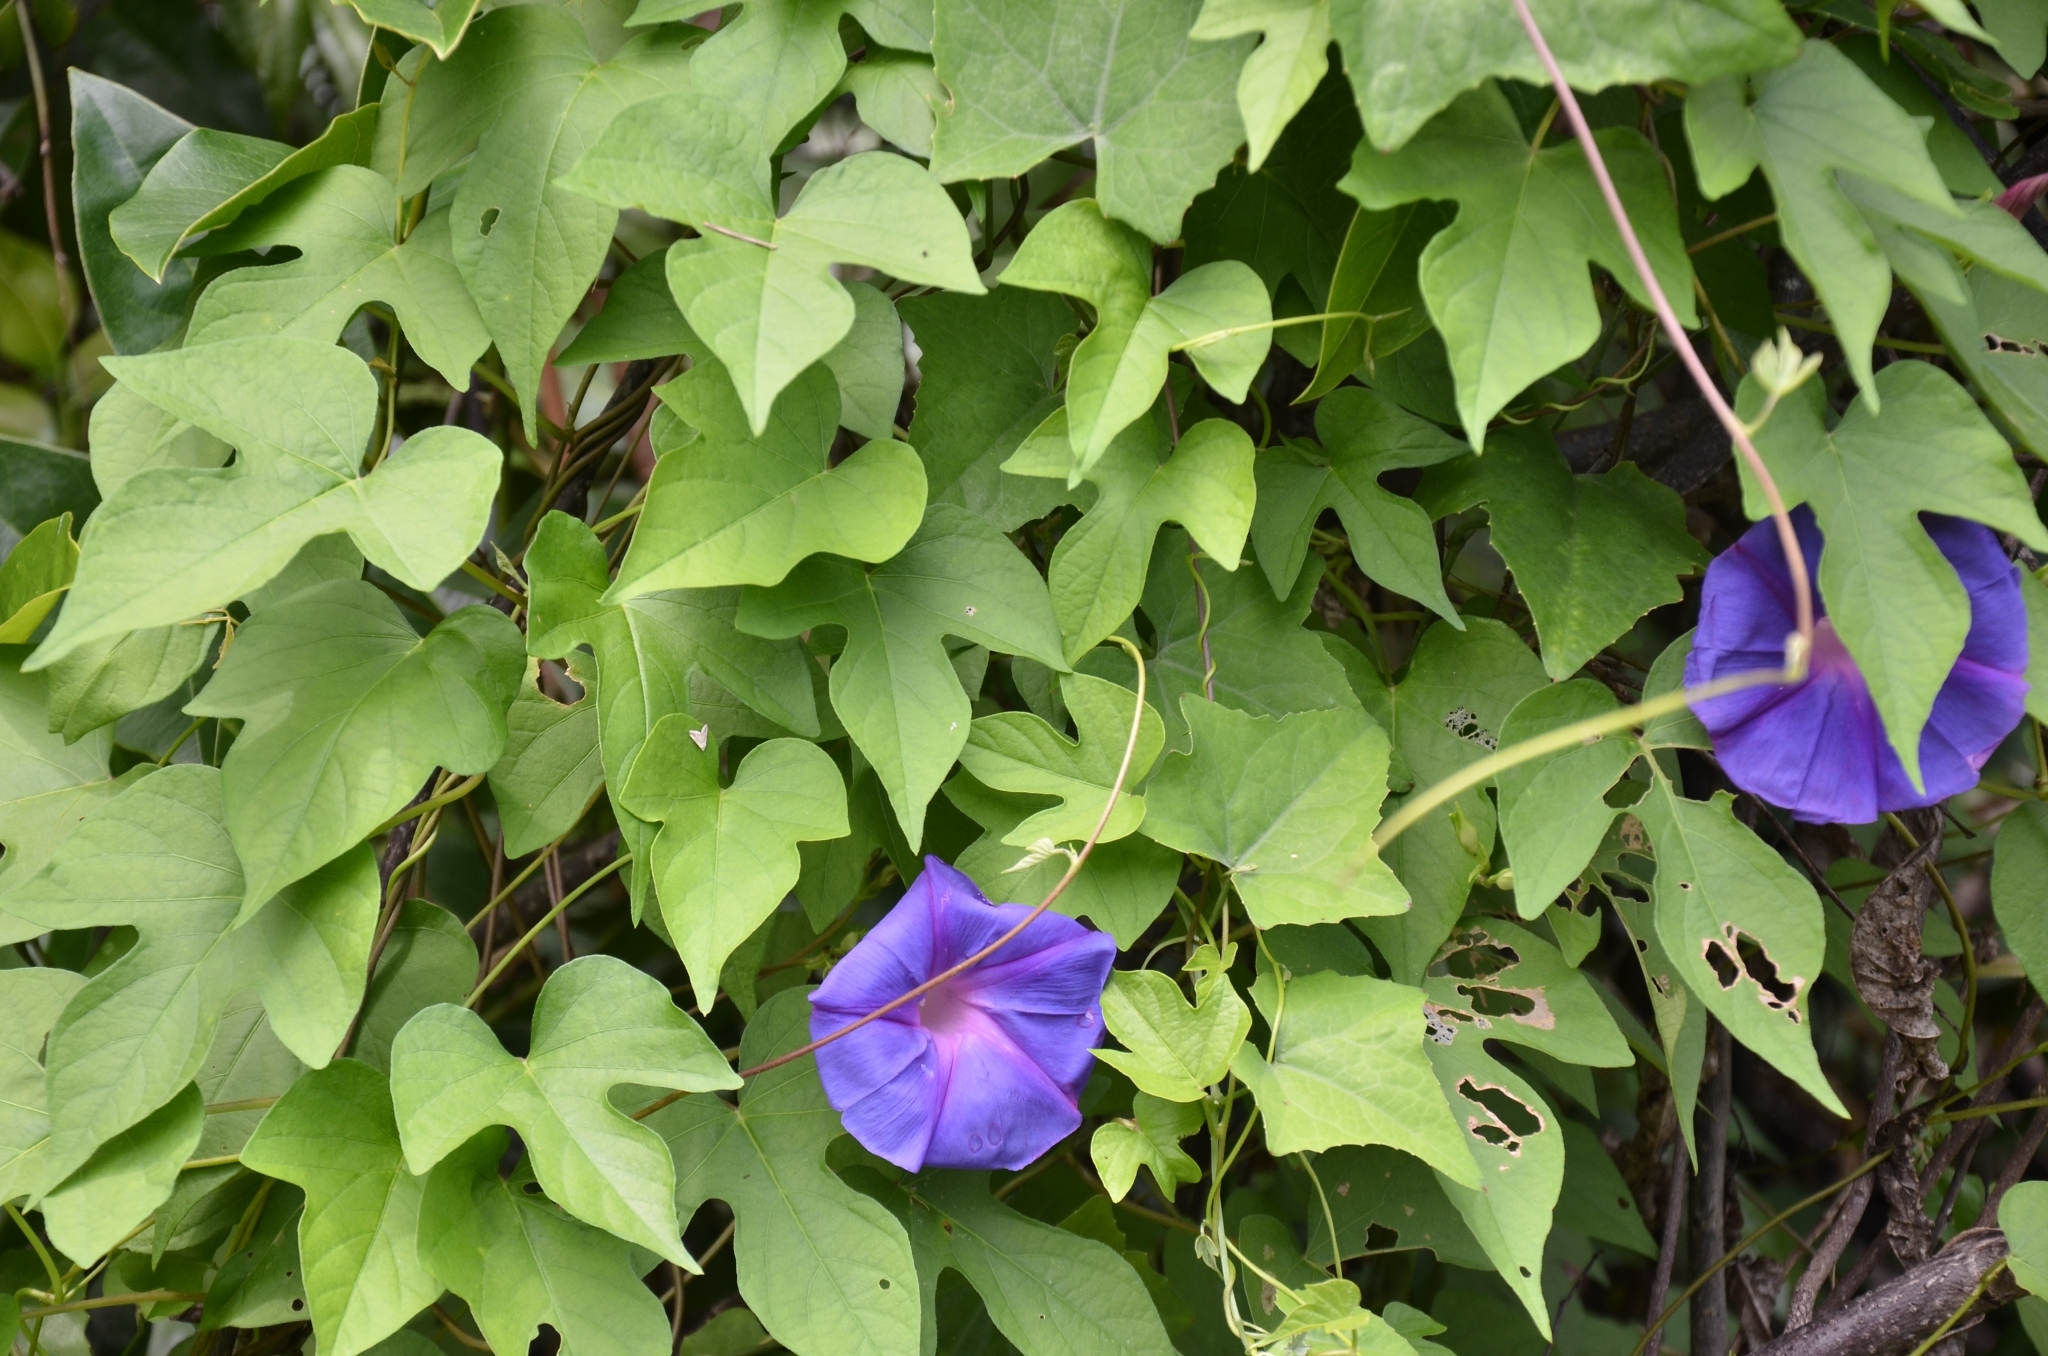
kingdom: Plantae
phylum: Tracheophyta
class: Magnoliopsida
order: Solanales
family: Convolvulaceae
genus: Ipomoea
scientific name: Ipomoea indica
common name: Blue dawnflower
